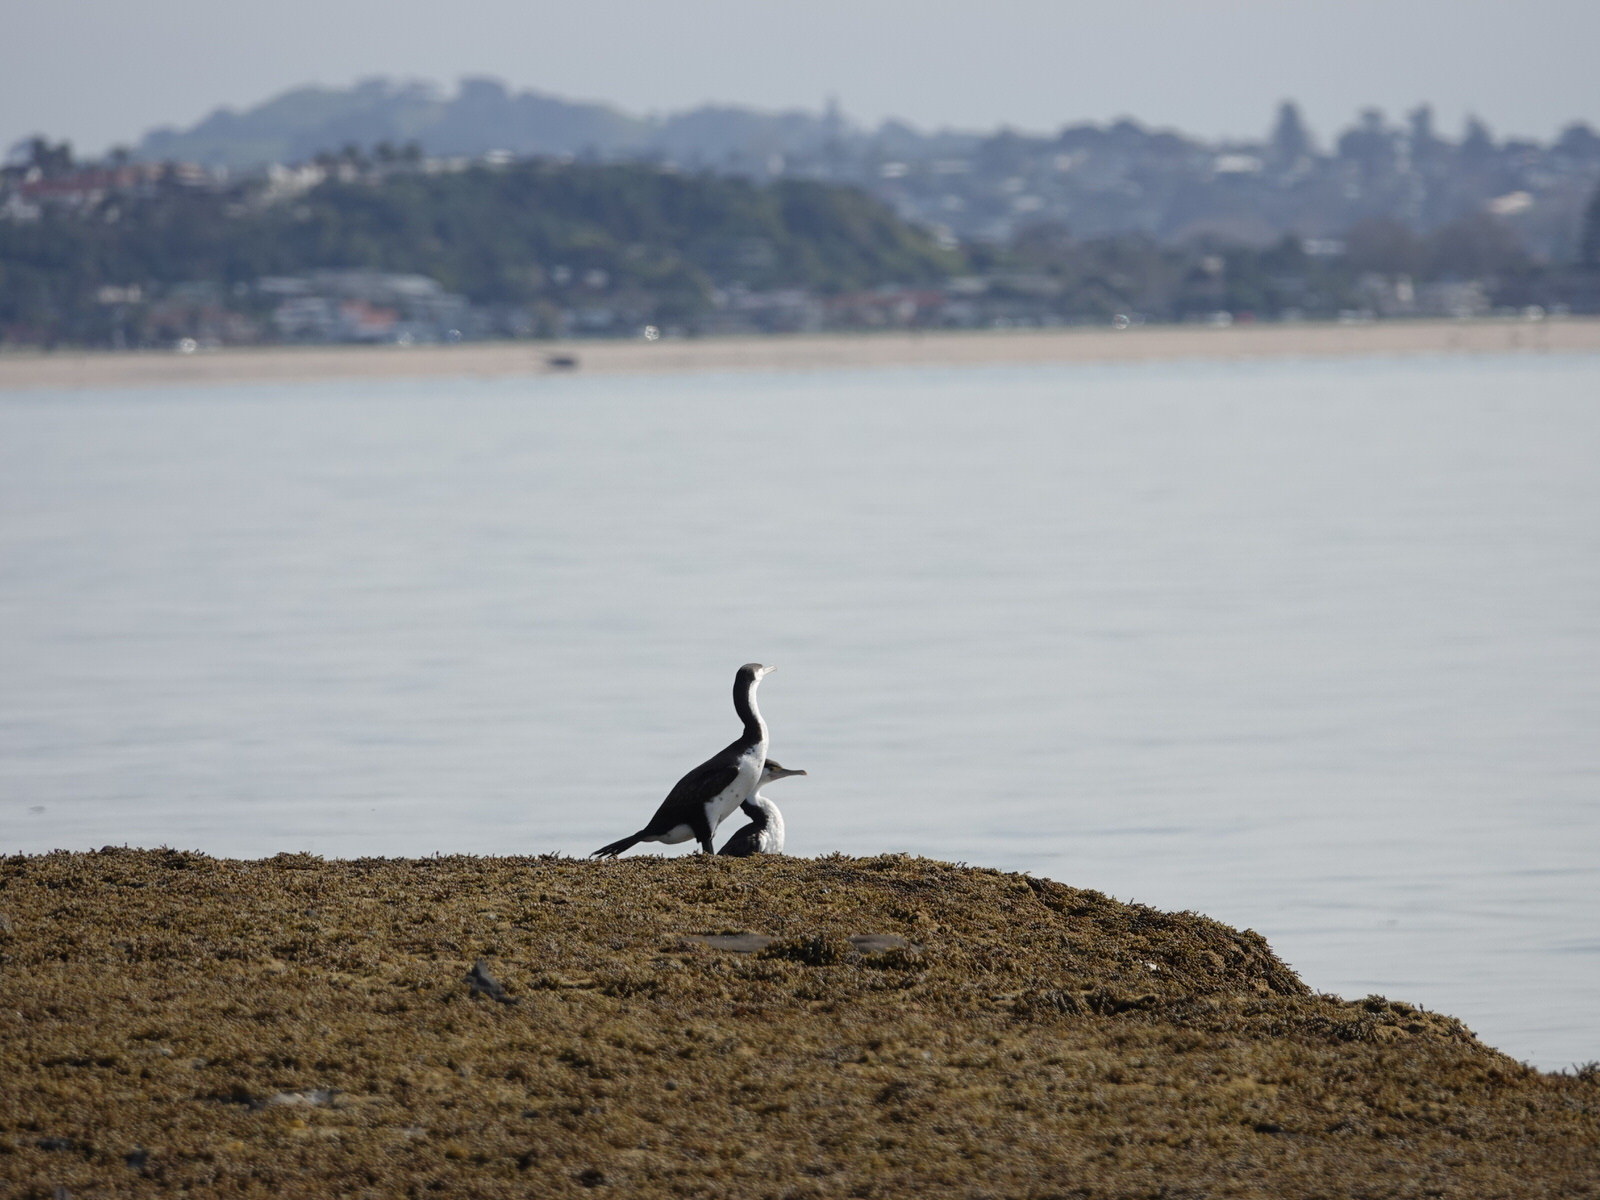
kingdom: Animalia
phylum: Chordata
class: Aves
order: Suliformes
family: Phalacrocoracidae
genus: Phalacrocorax
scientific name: Phalacrocorax varius
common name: Pied cormorant
